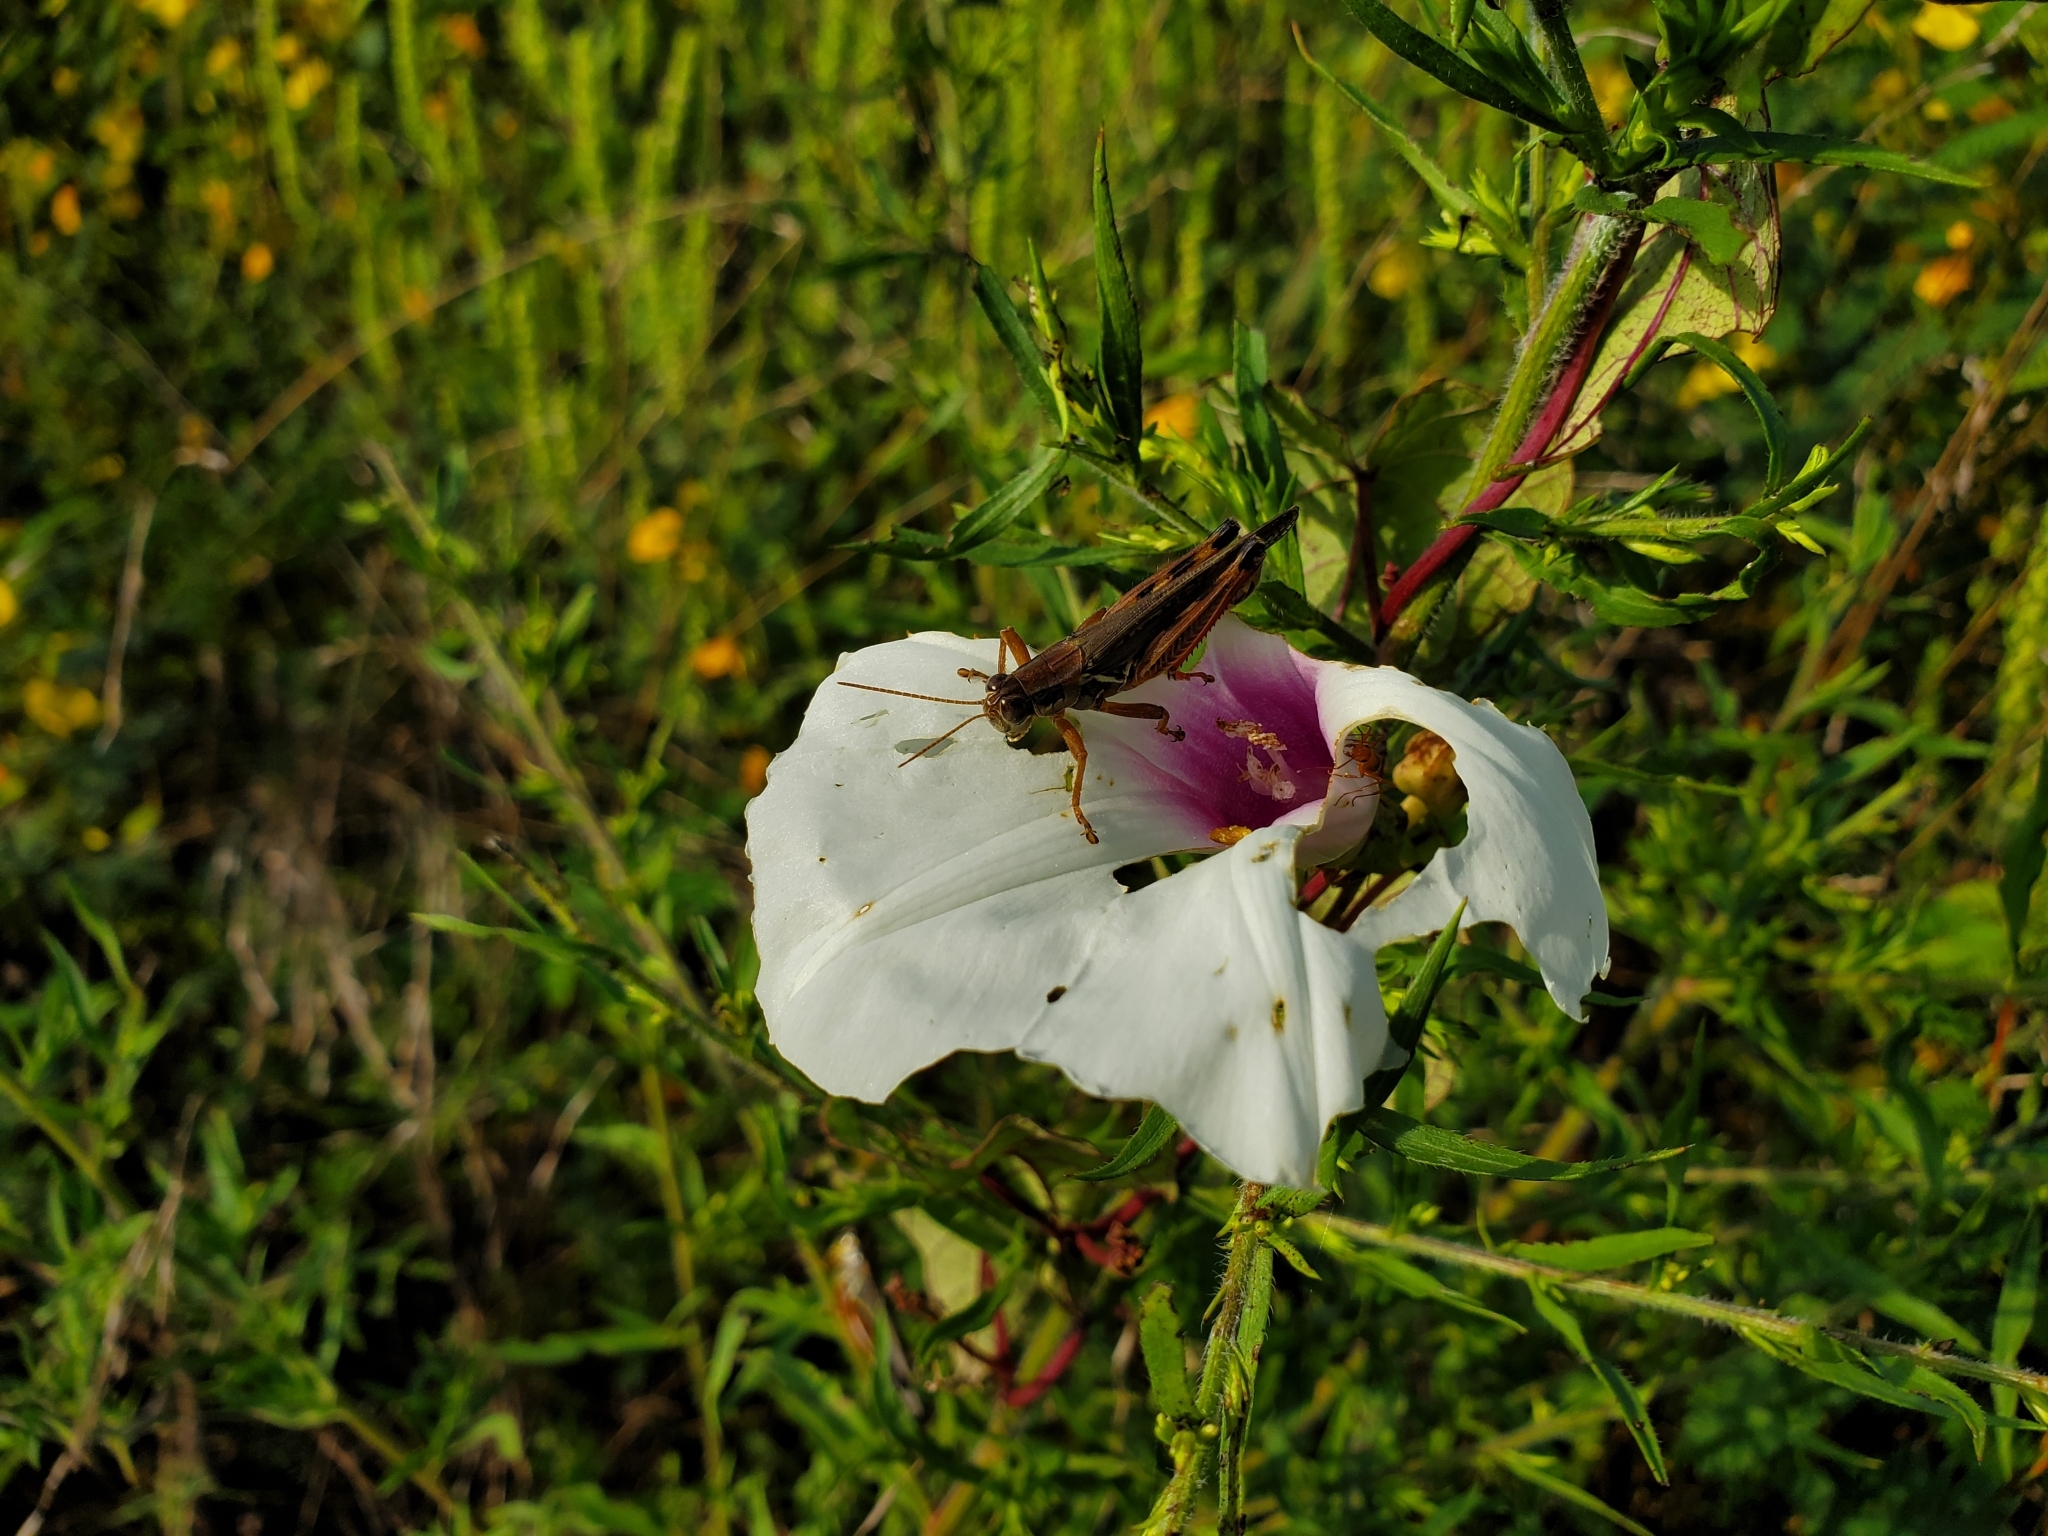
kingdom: Plantae
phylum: Tracheophyta
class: Magnoliopsida
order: Solanales
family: Convolvulaceae
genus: Ipomoea
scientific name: Ipomoea pandurata
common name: Man-of-the-earth
